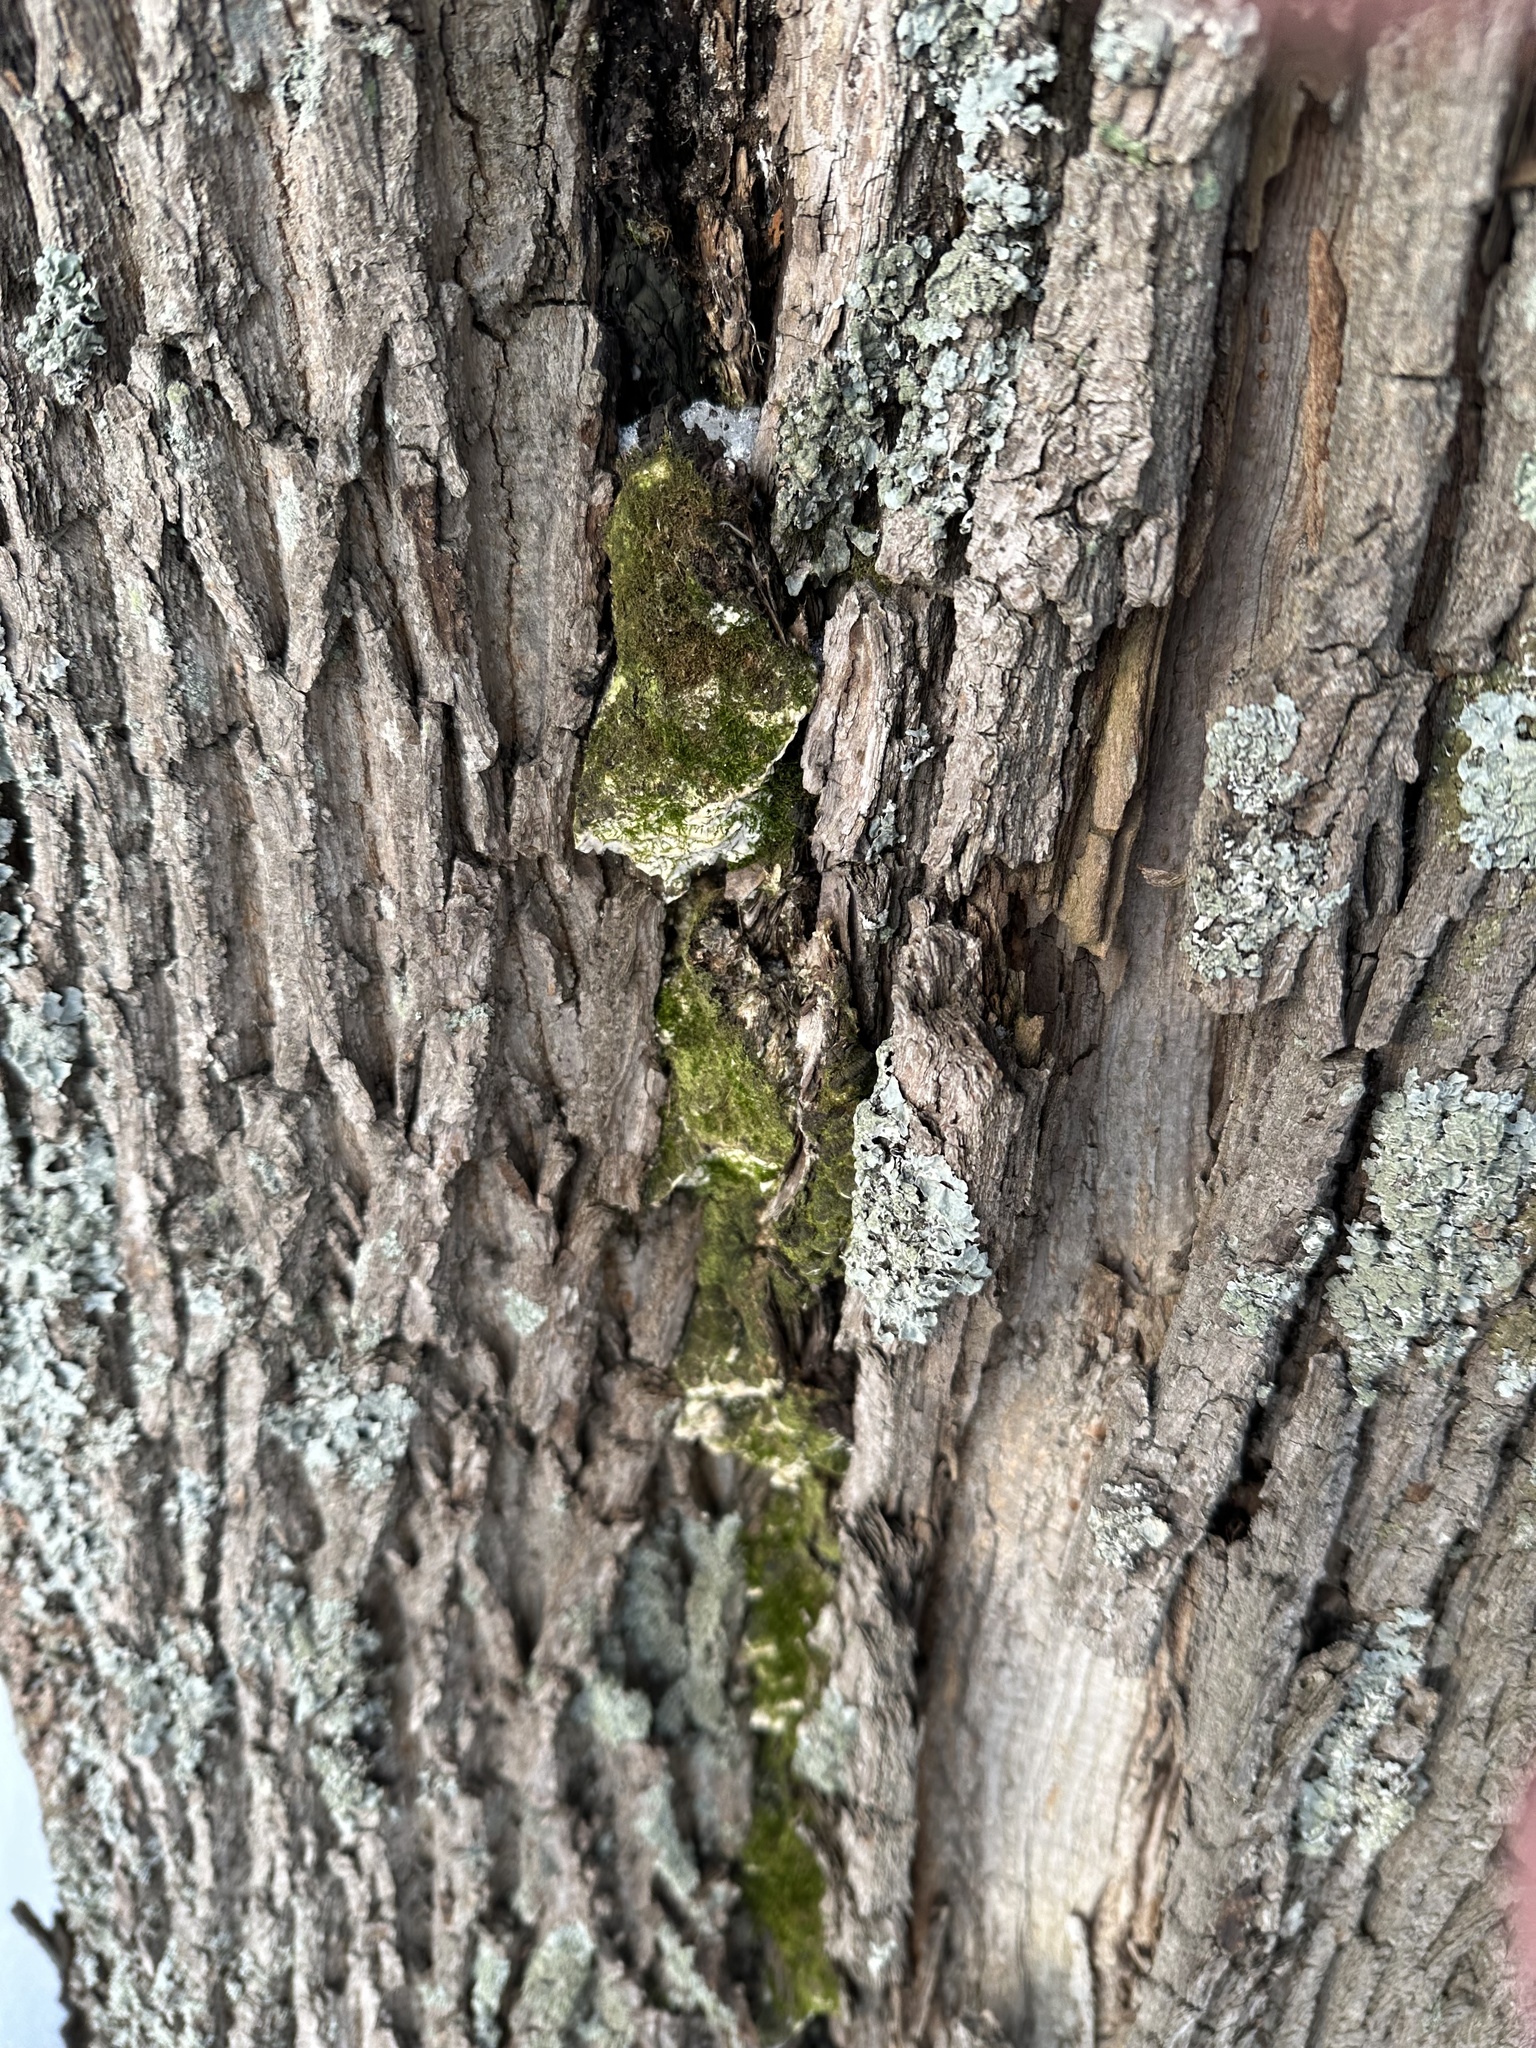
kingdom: Fungi
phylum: Basidiomycota
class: Agaricomycetes
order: Hymenochaetales
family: Oxyporaceae
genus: Oxyporus
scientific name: Oxyporus populinus
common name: Poplar bracket
